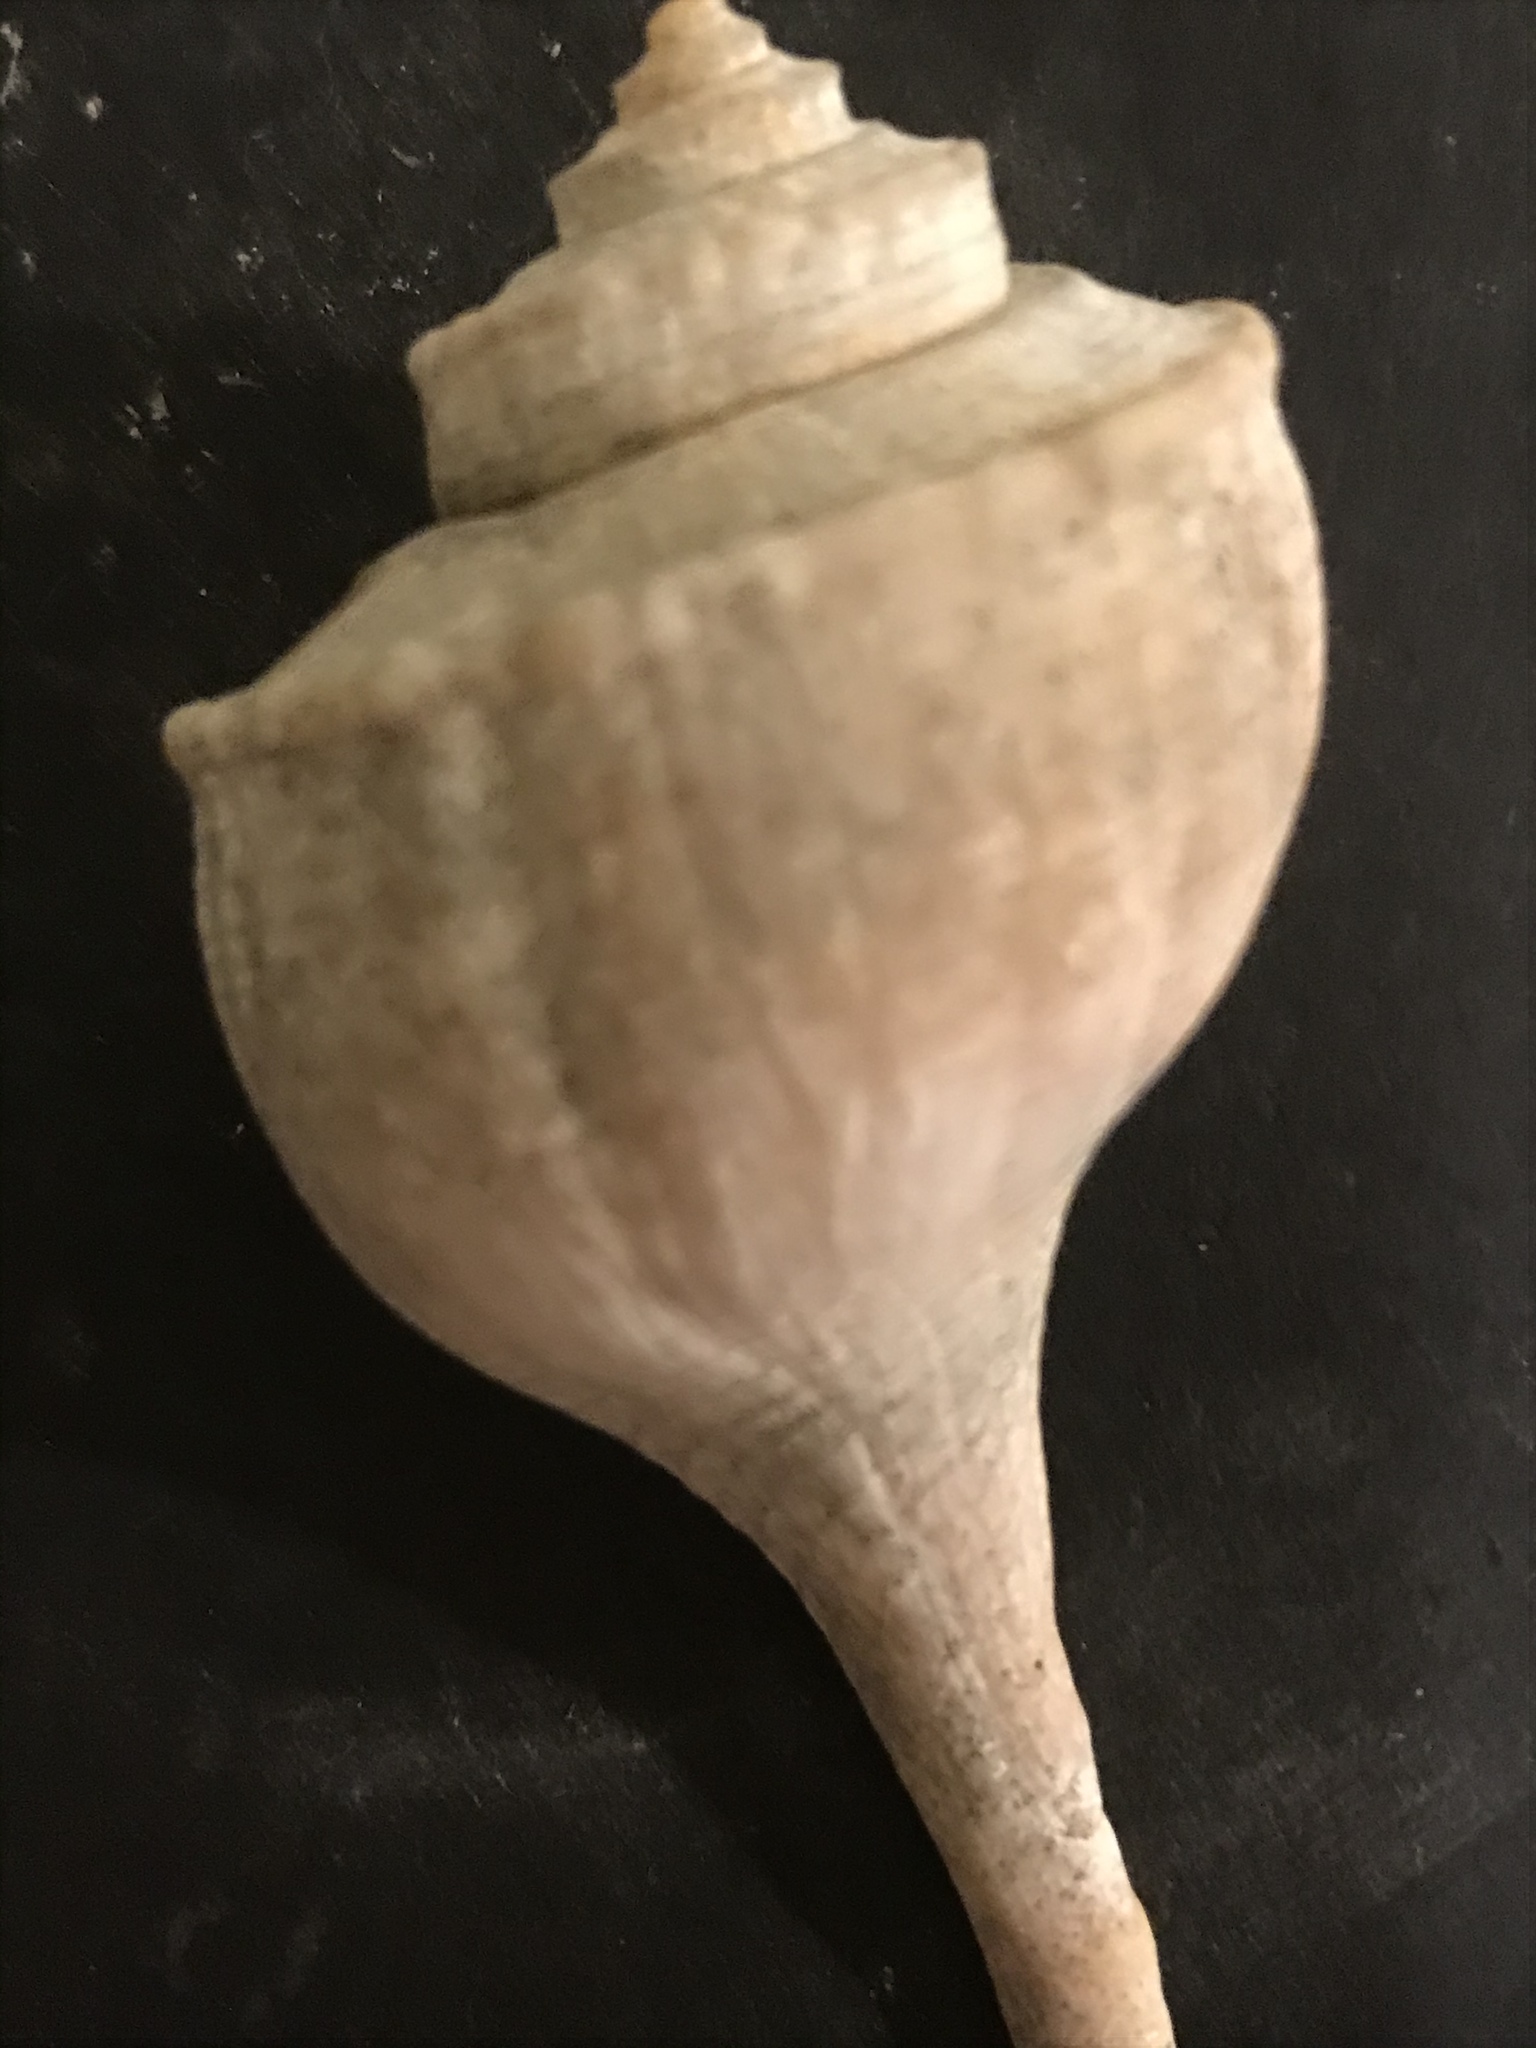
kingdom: Animalia
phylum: Mollusca
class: Gastropoda
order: Neogastropoda
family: Busyconidae
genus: Busycotypus
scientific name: Busycotypus canaliculatus
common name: Channeled whelk
